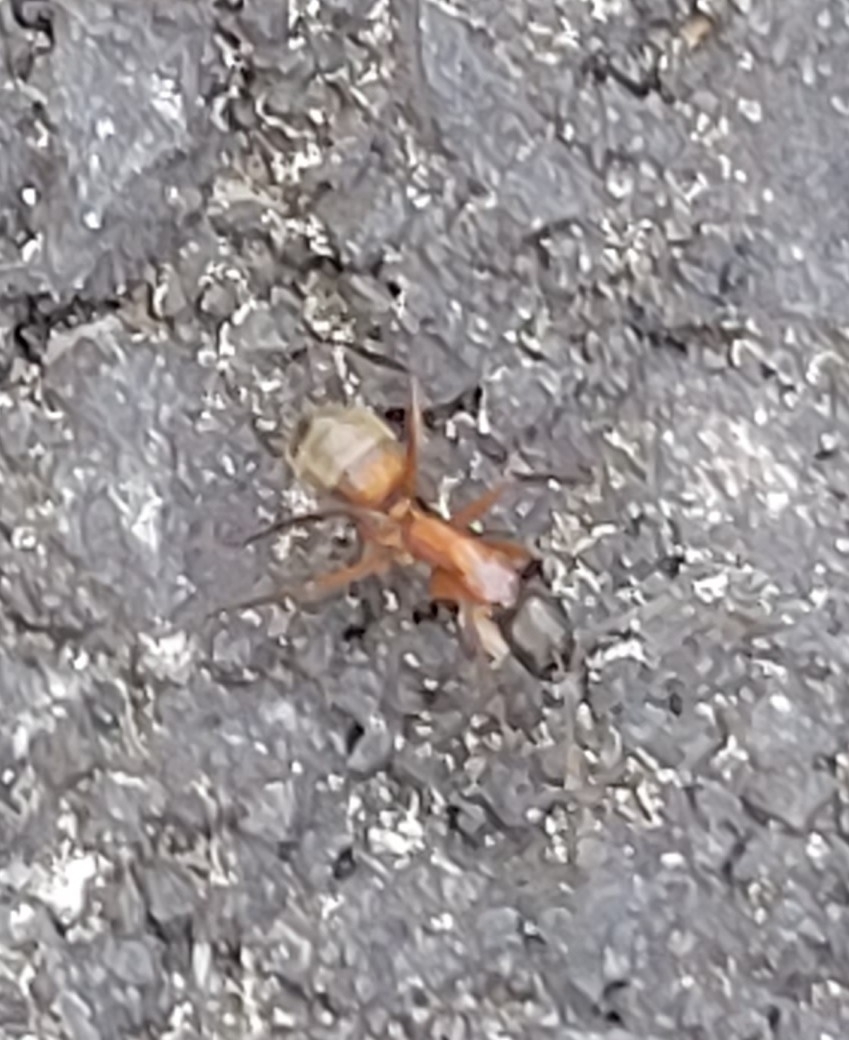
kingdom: Animalia
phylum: Arthropoda
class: Insecta
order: Hymenoptera
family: Formicidae
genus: Camponotus
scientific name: Camponotus chromaiodes
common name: Red carpenter ant
